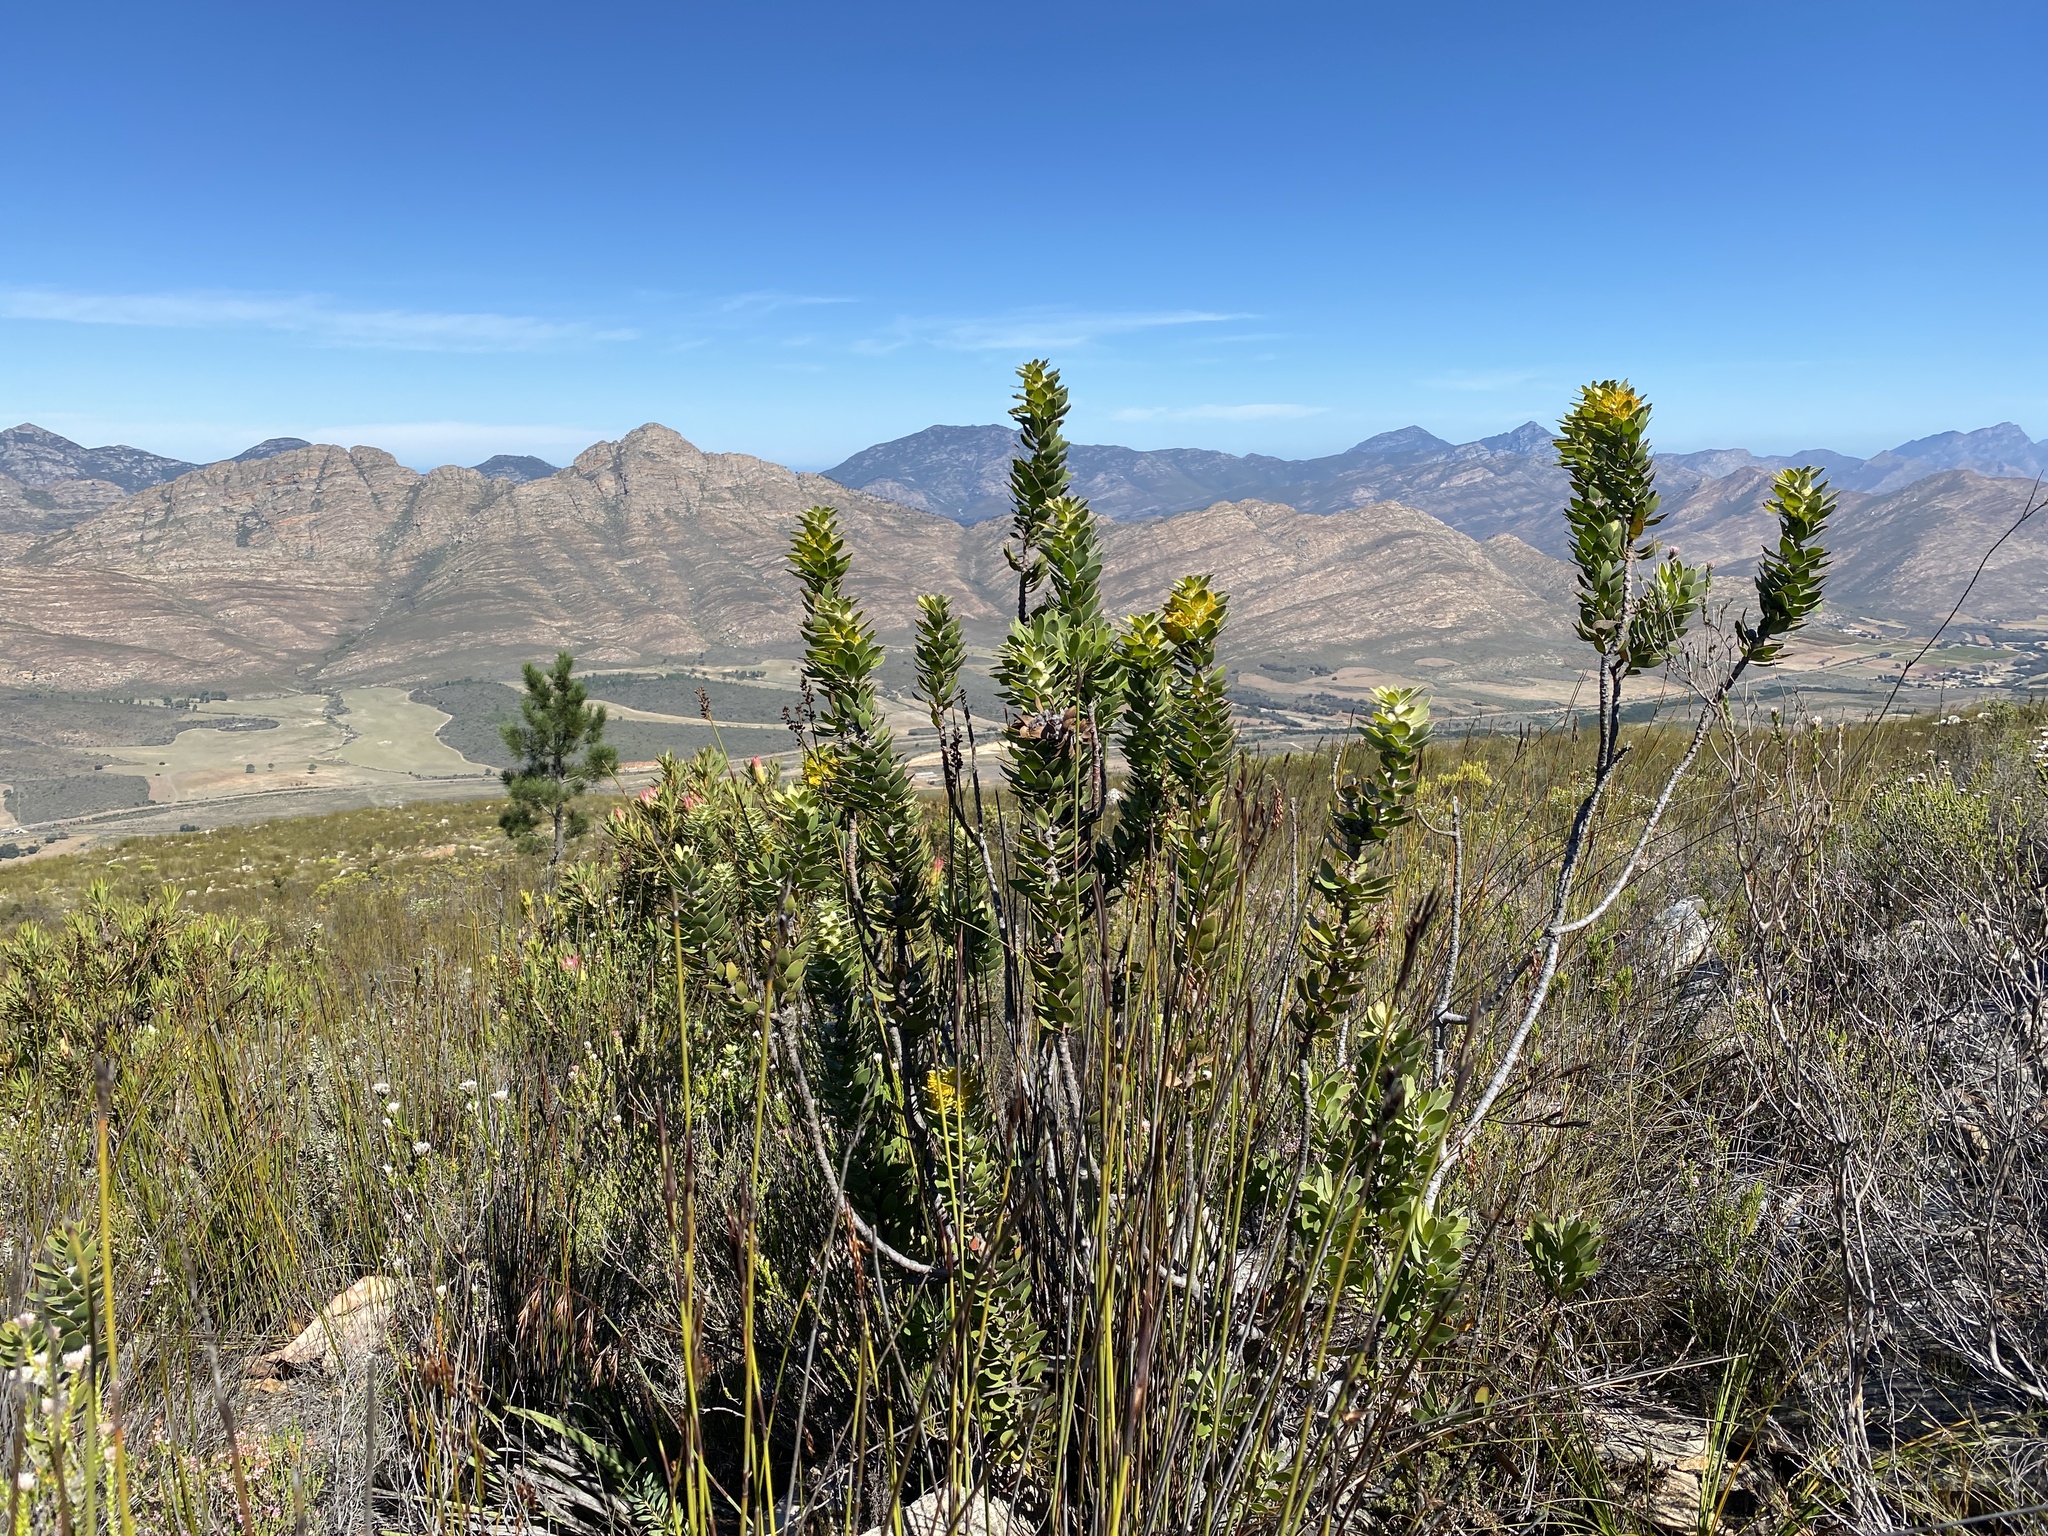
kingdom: Plantae
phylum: Tracheophyta
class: Magnoliopsida
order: Proteales
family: Proteaceae
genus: Mimetes
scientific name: Mimetes chrysanthus
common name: Golden pagoda
